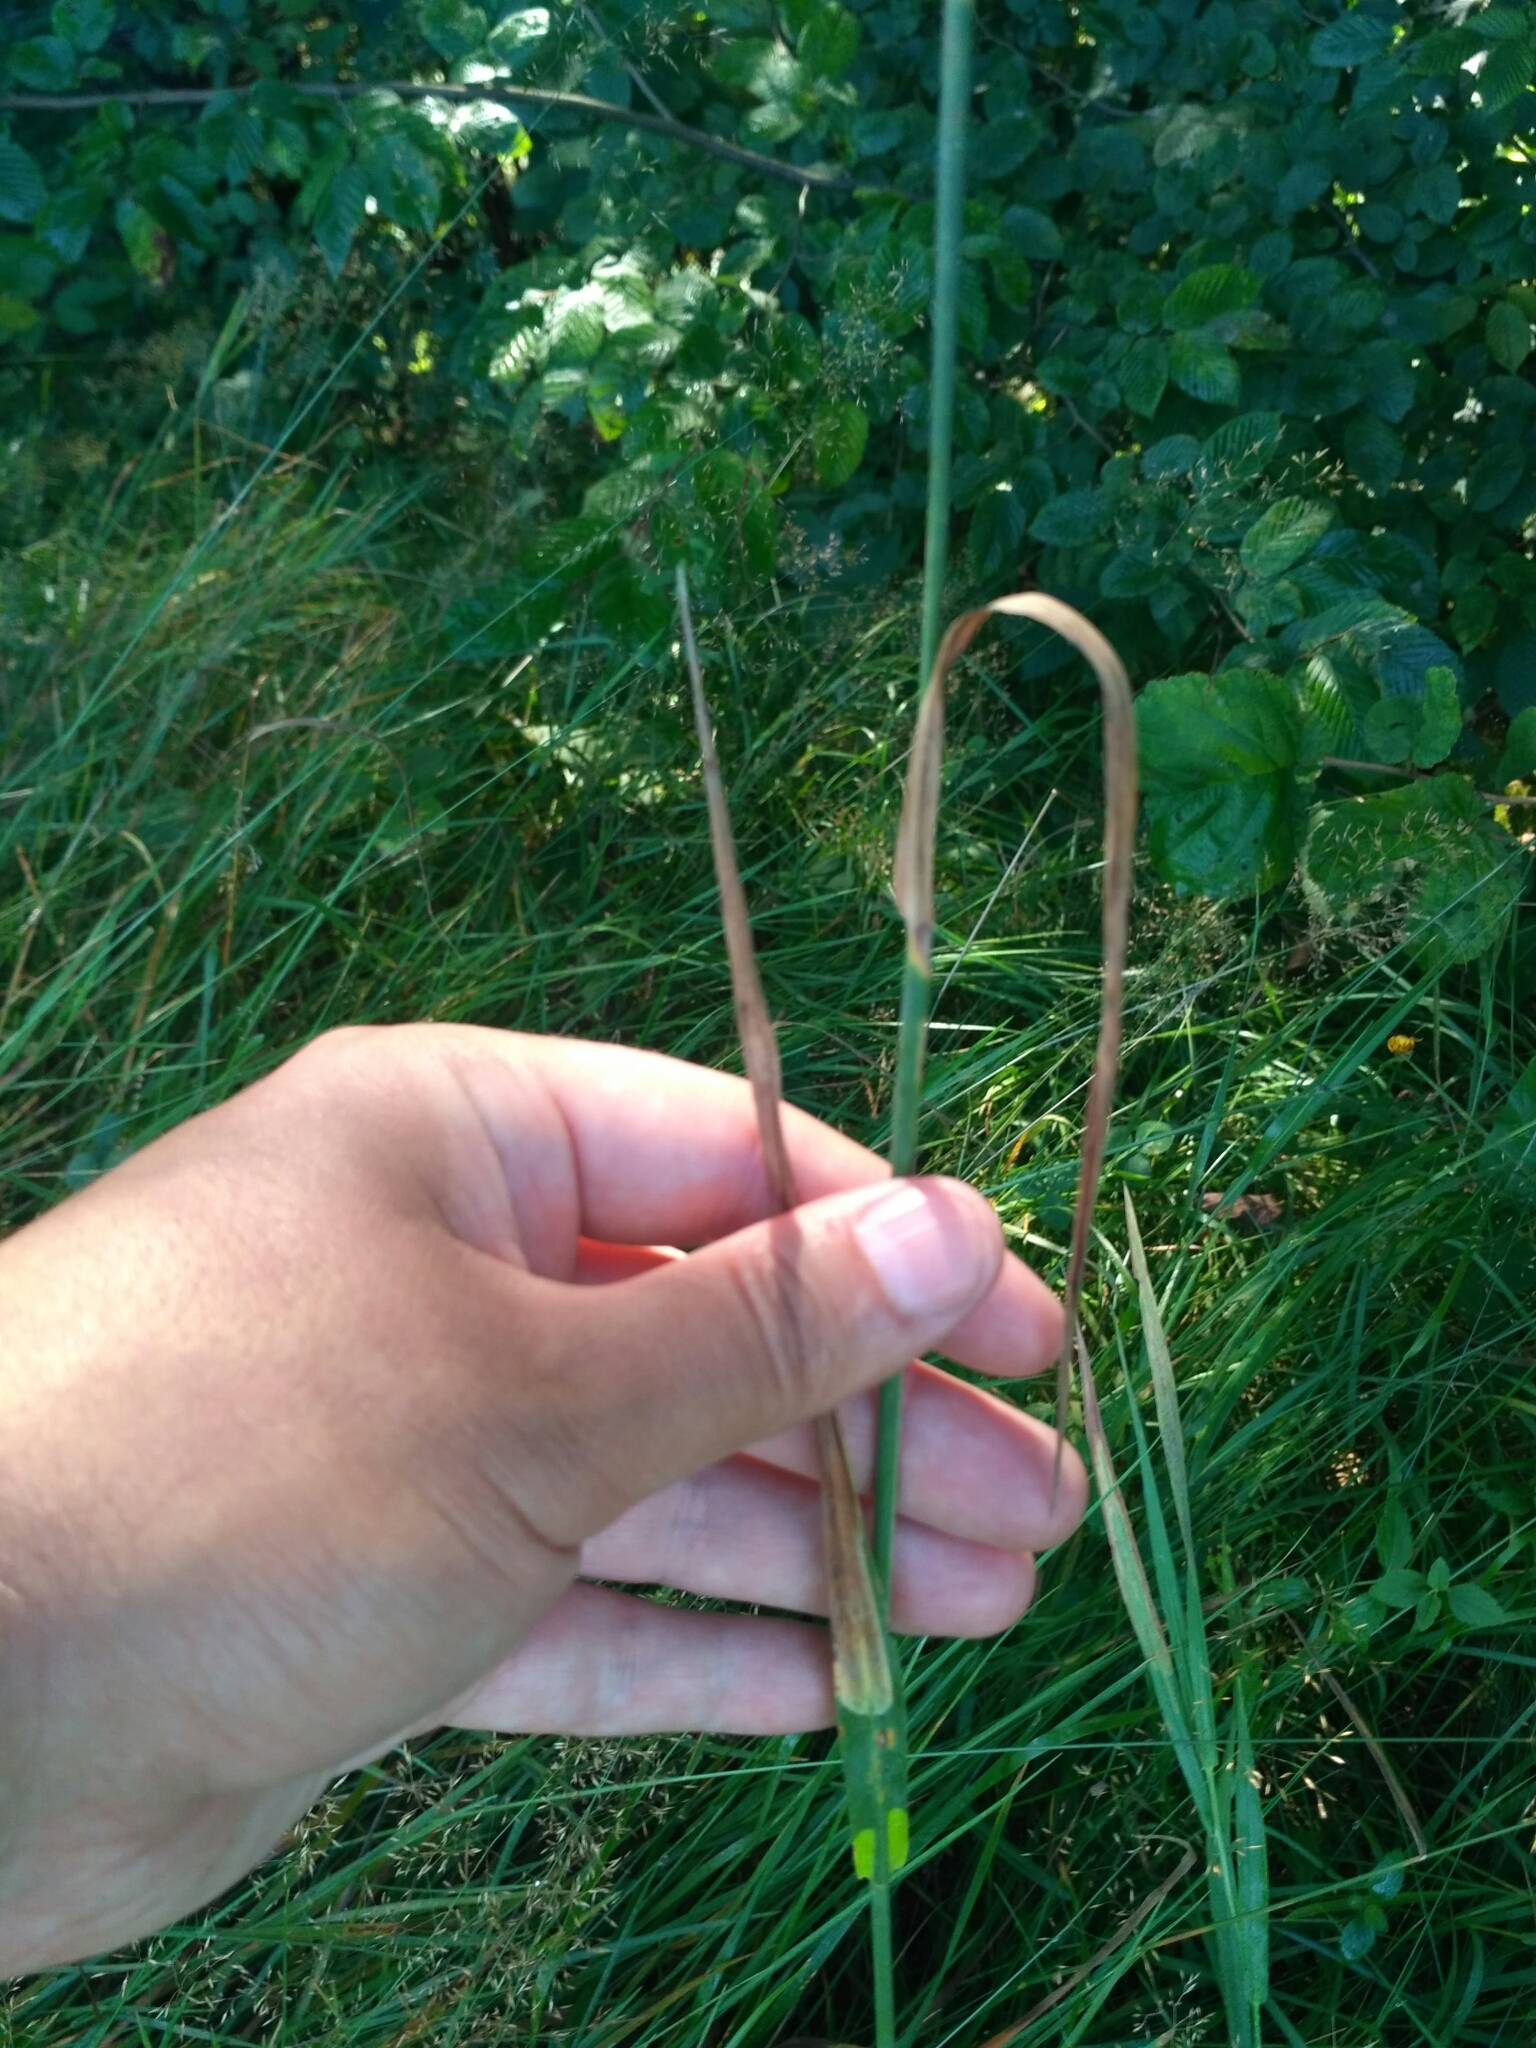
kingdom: Plantae
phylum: Tracheophyta
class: Liliopsida
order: Poales
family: Poaceae
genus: Phleum
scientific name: Phleum pratense
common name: Timothy grass
